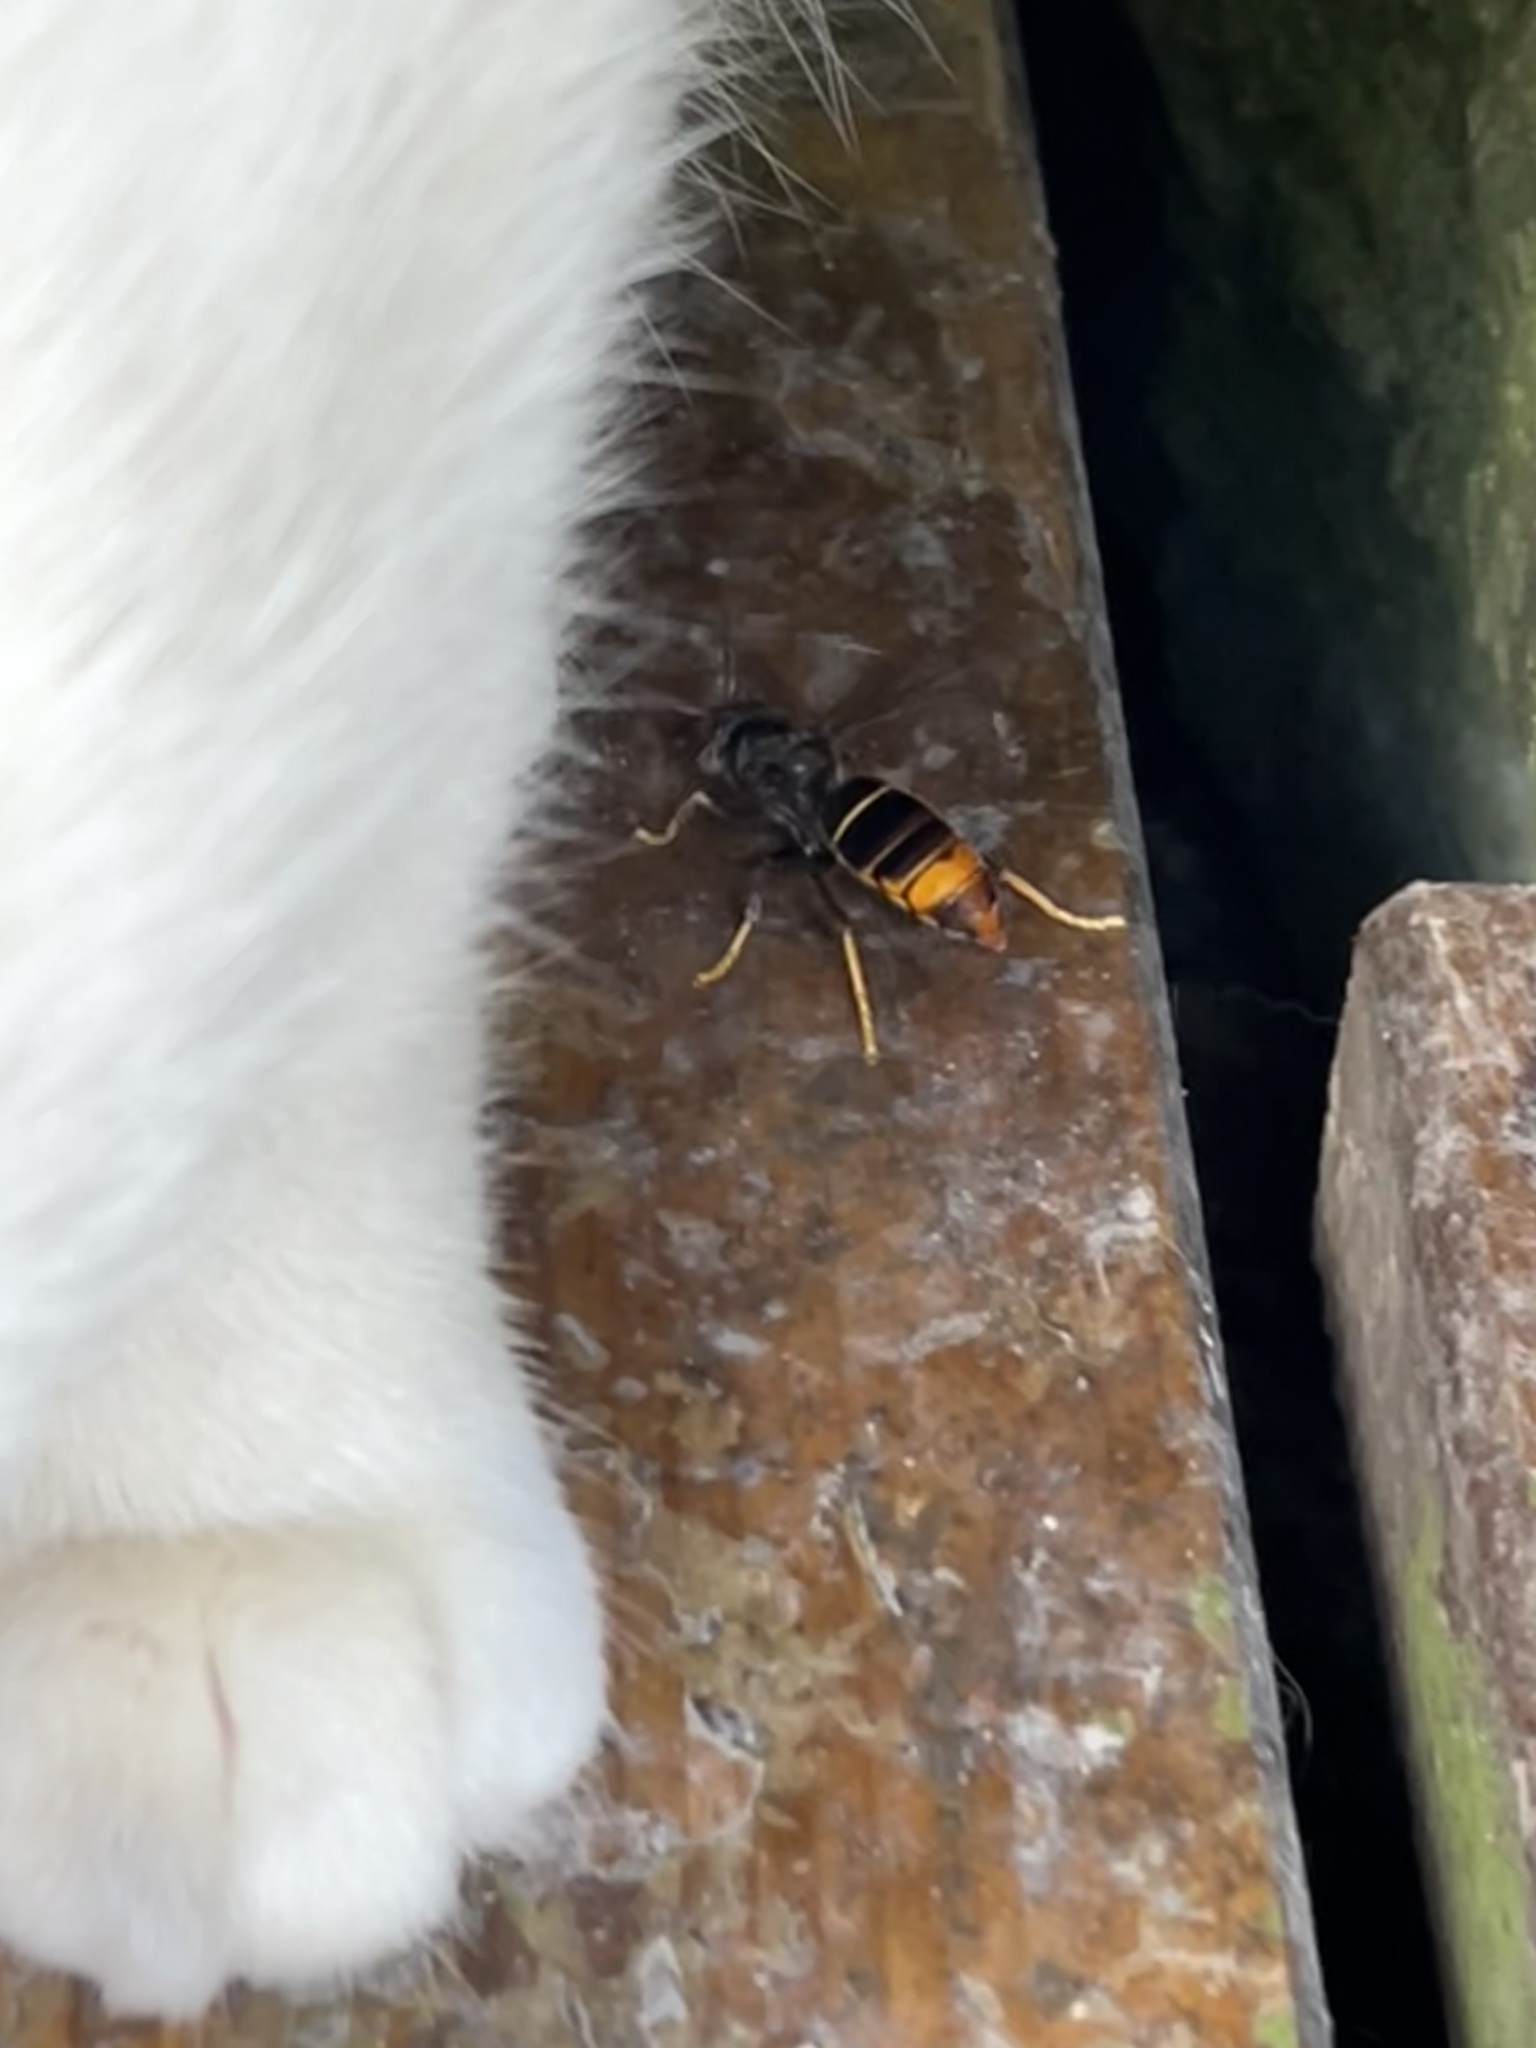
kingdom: Animalia
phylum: Arthropoda
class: Insecta
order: Hymenoptera
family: Vespidae
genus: Vespa
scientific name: Vespa velutina
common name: Asian hornet
